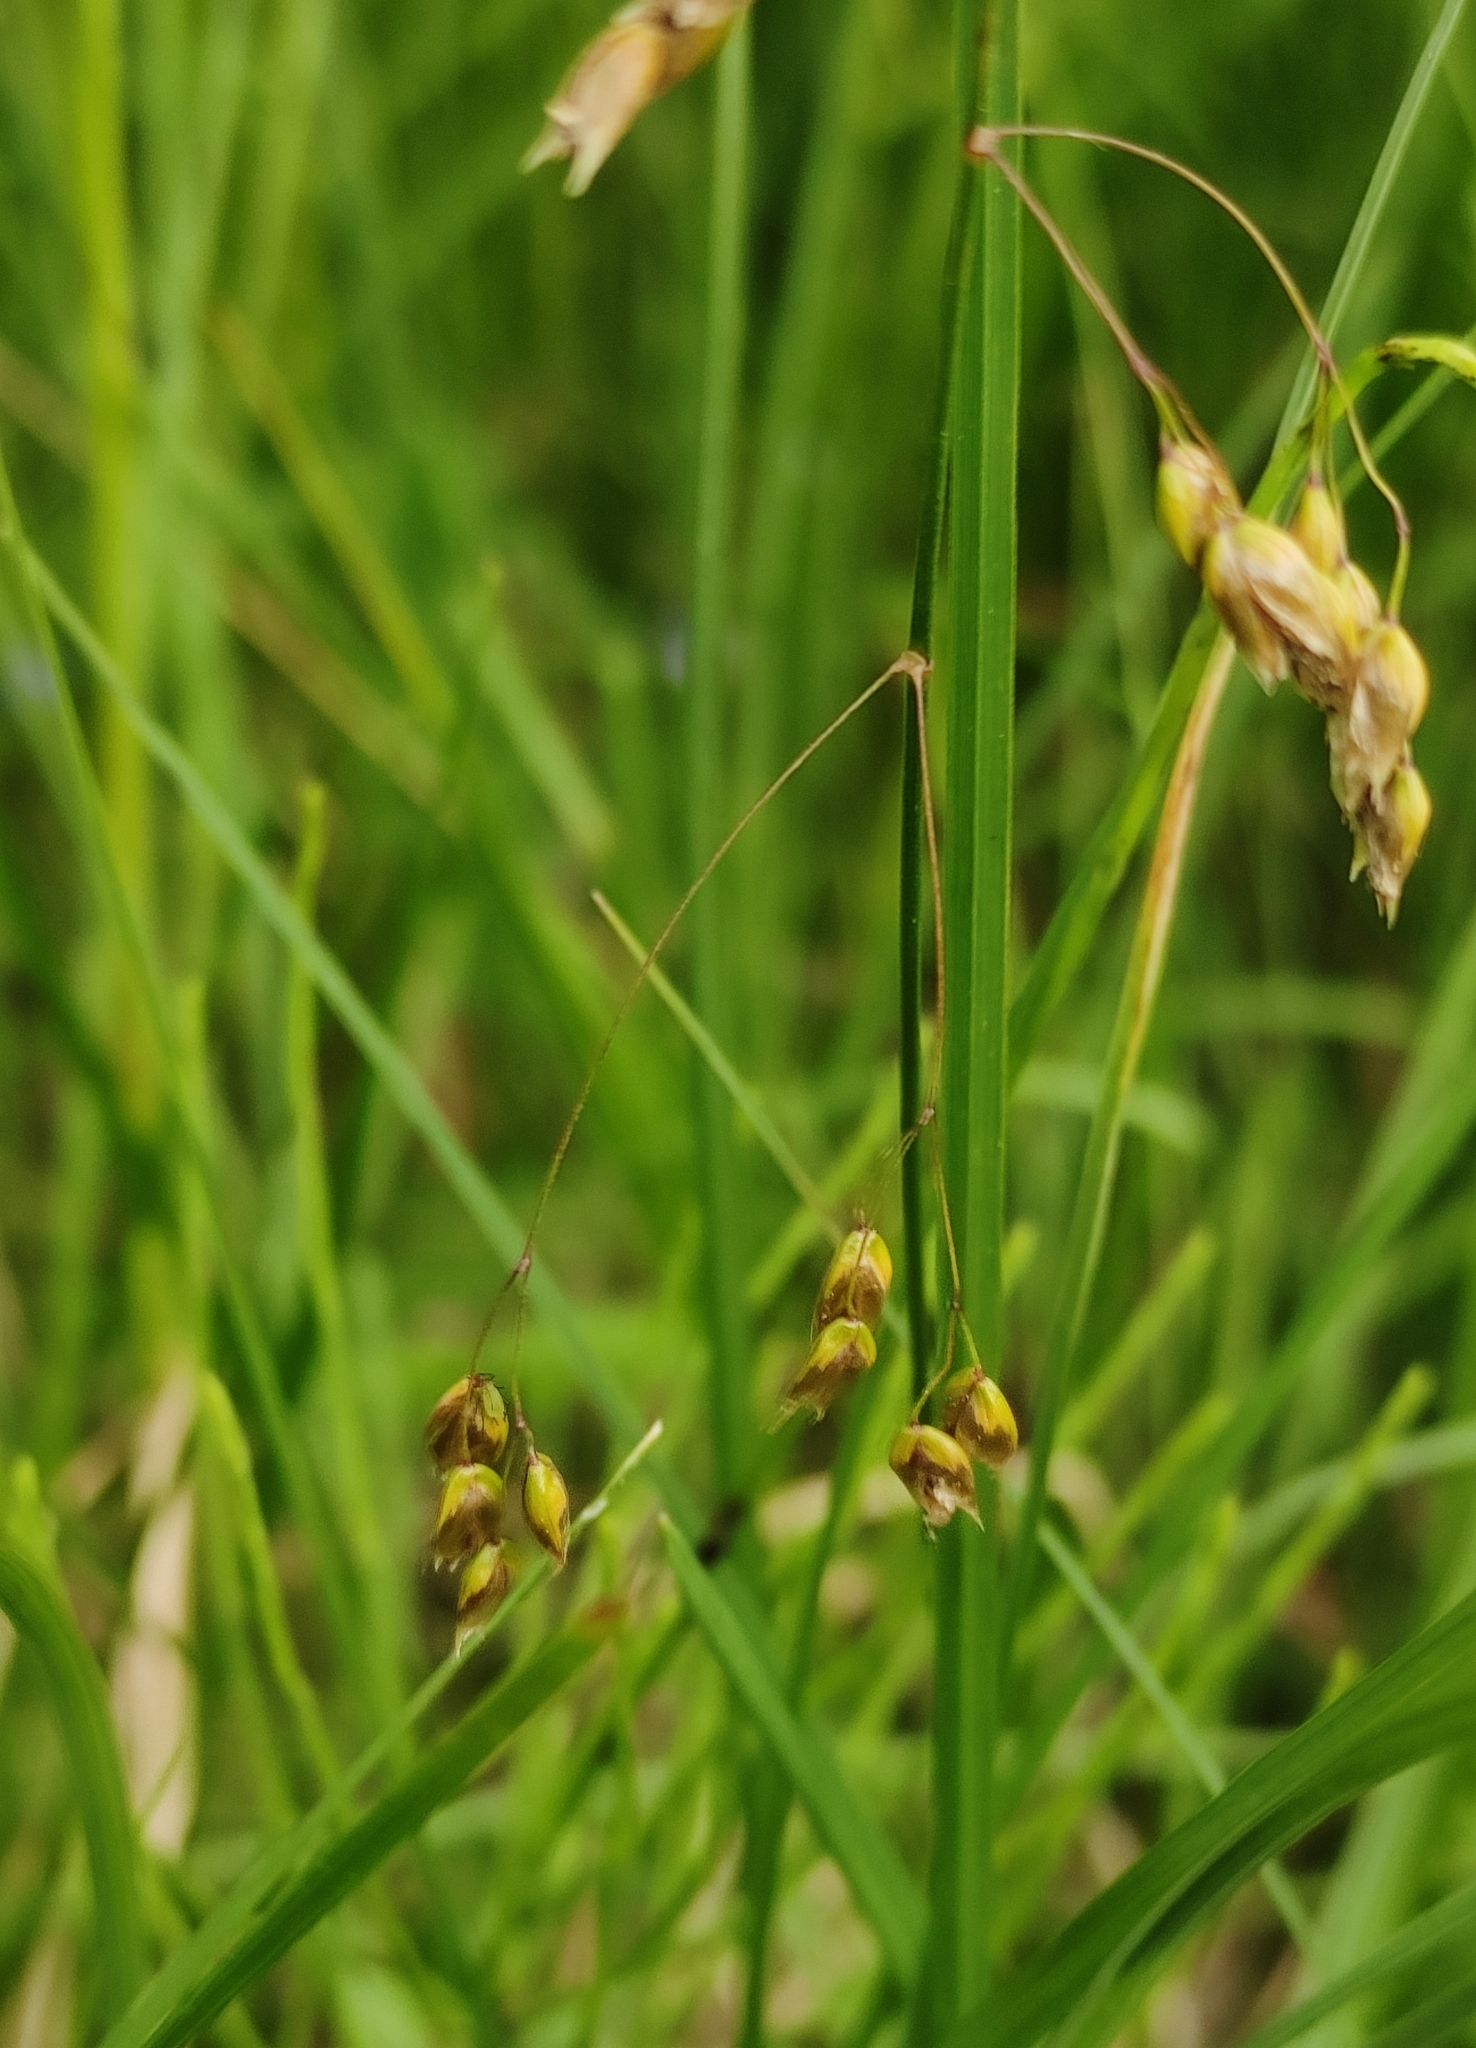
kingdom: Plantae
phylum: Tracheophyta
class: Liliopsida
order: Poales
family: Poaceae
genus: Anthoxanthum
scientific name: Anthoxanthum nitens
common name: Holy grass
